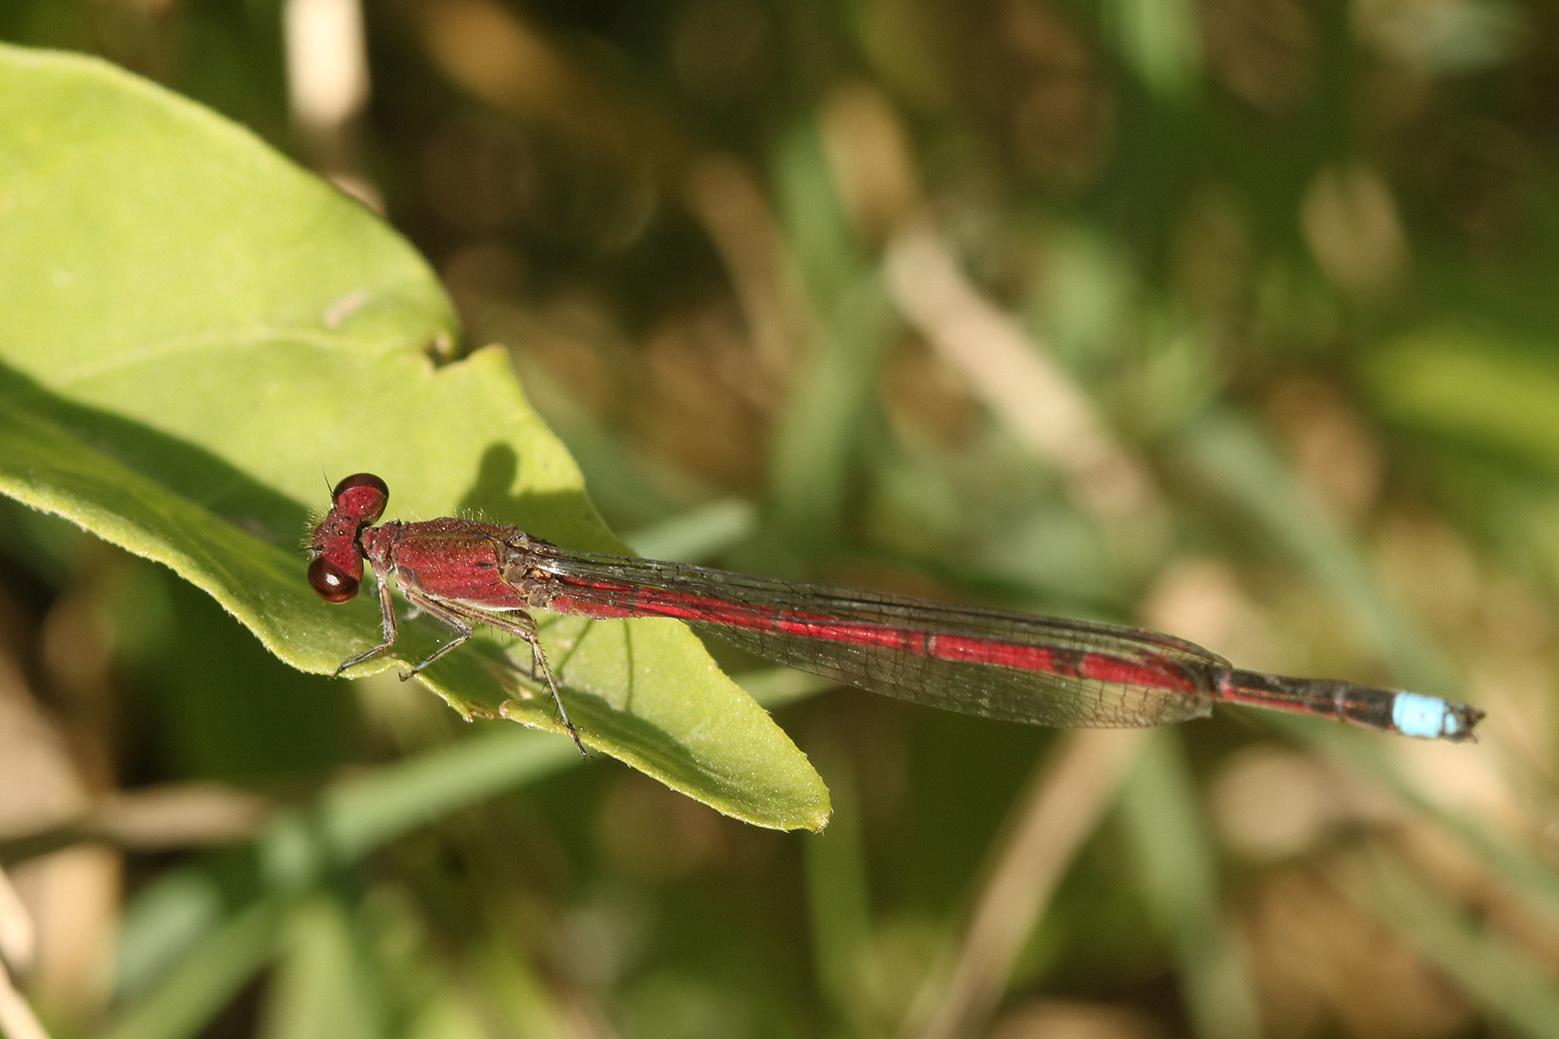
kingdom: Animalia
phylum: Arthropoda
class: Insecta
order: Odonata
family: Coenagrionidae
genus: Oxyagrion
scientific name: Oxyagrion terminale
